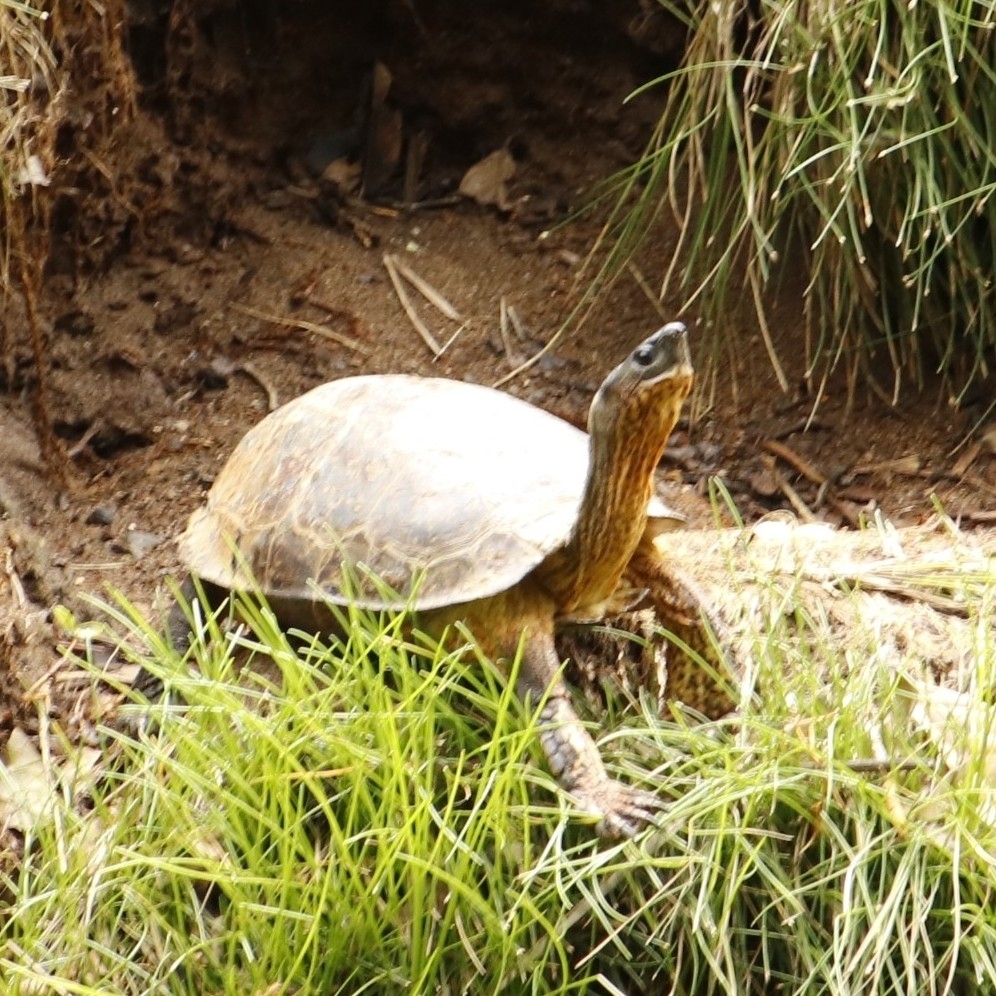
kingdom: Animalia
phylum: Chordata
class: Testudines
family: Geoemydidae
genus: Rhinoclemmys
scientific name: Rhinoclemmys funerea
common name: Black wood turtle
